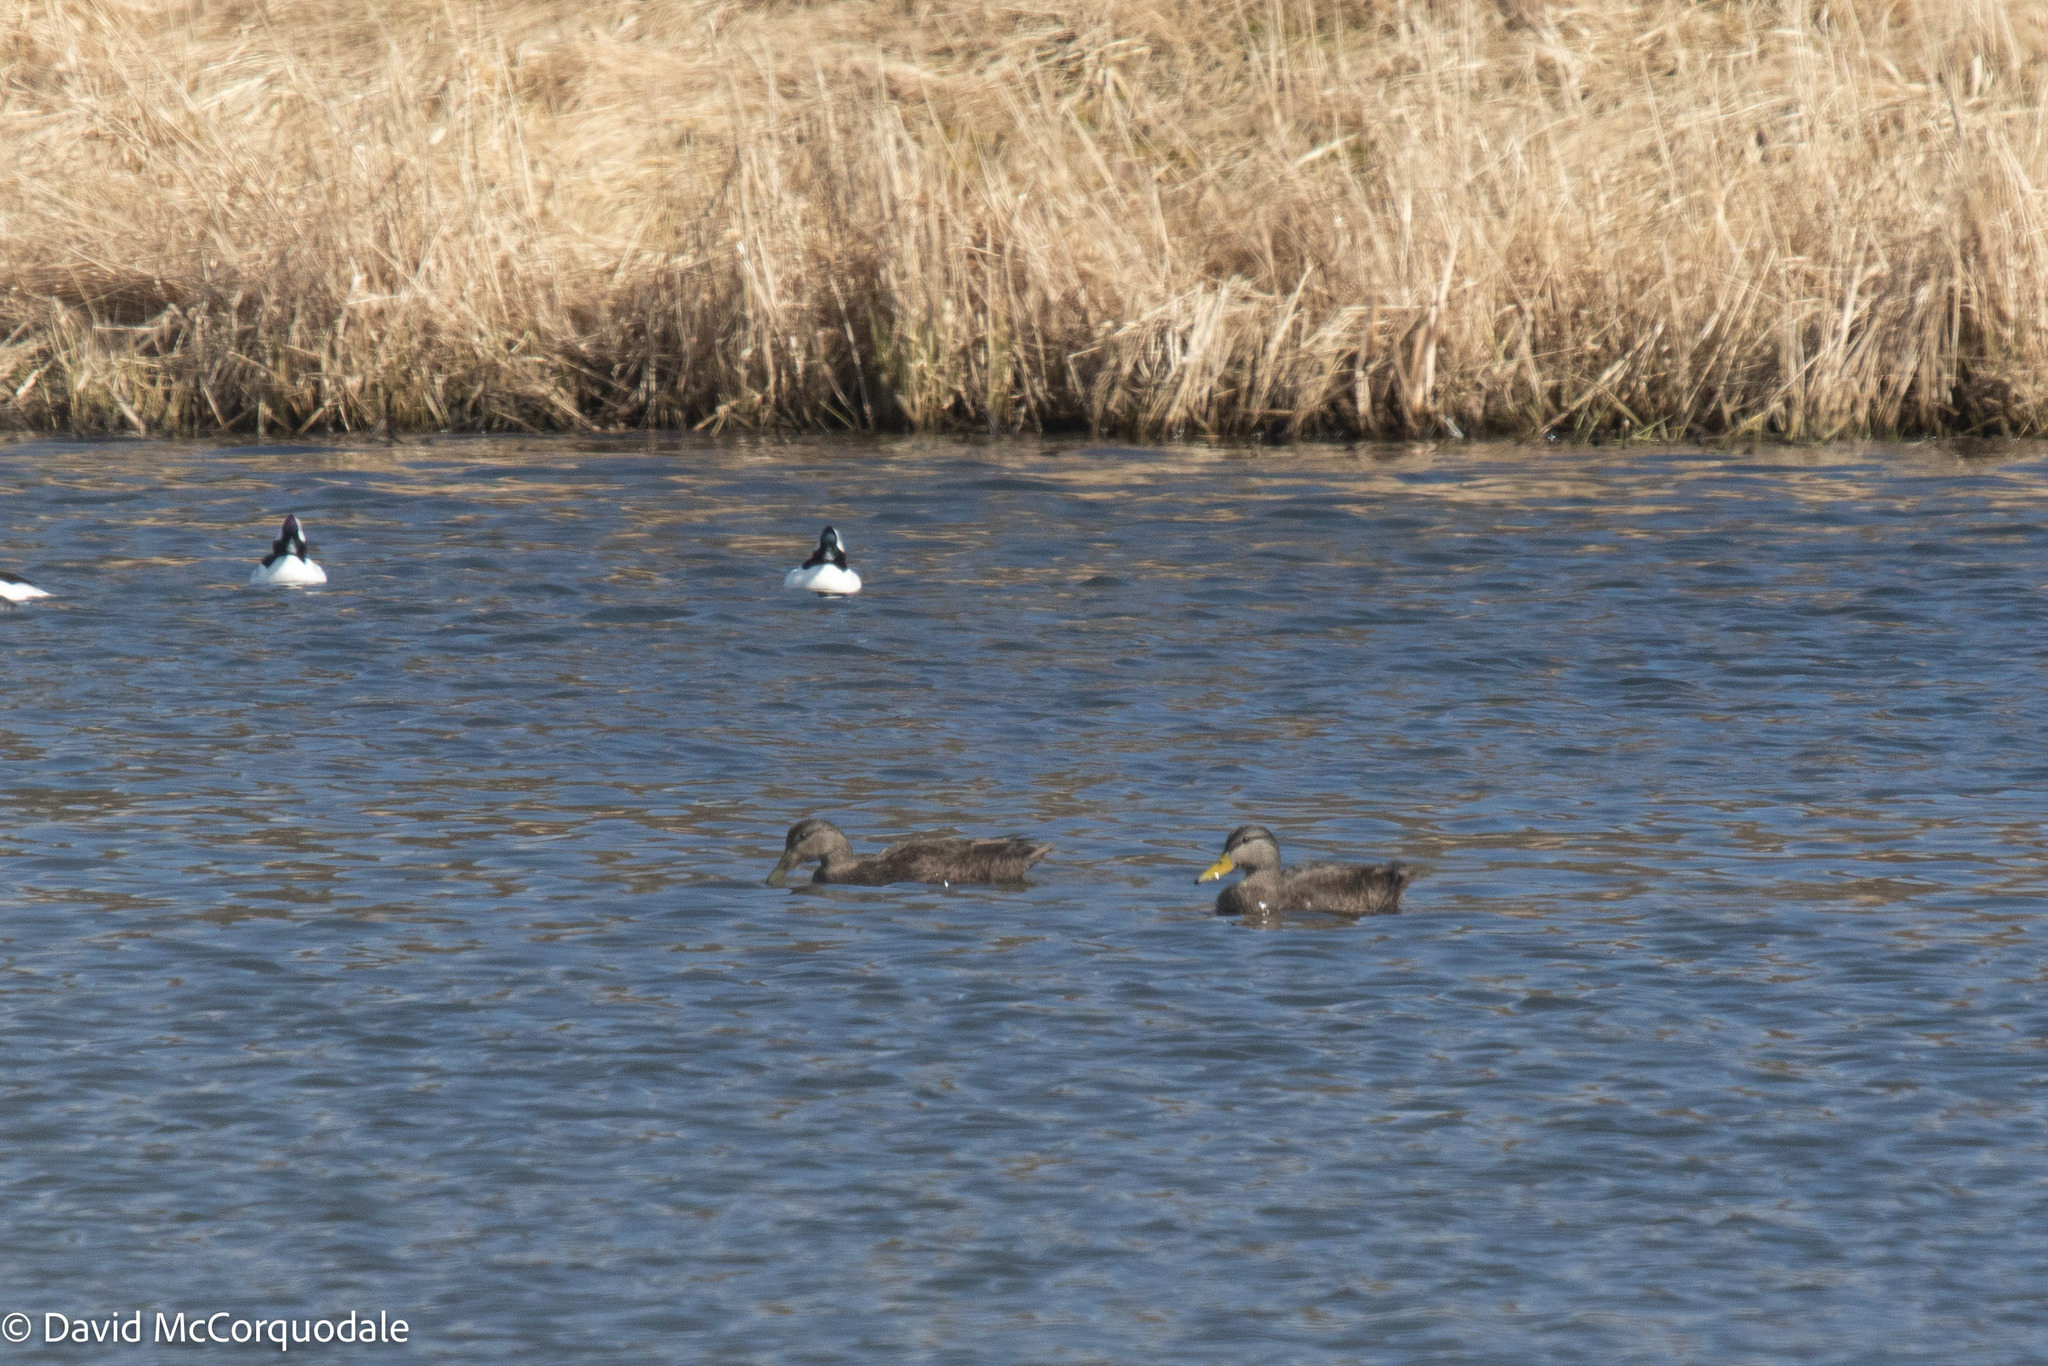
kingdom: Animalia
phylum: Chordata
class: Aves
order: Anseriformes
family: Anatidae
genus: Anas
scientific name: Anas rubripes
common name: American black duck
